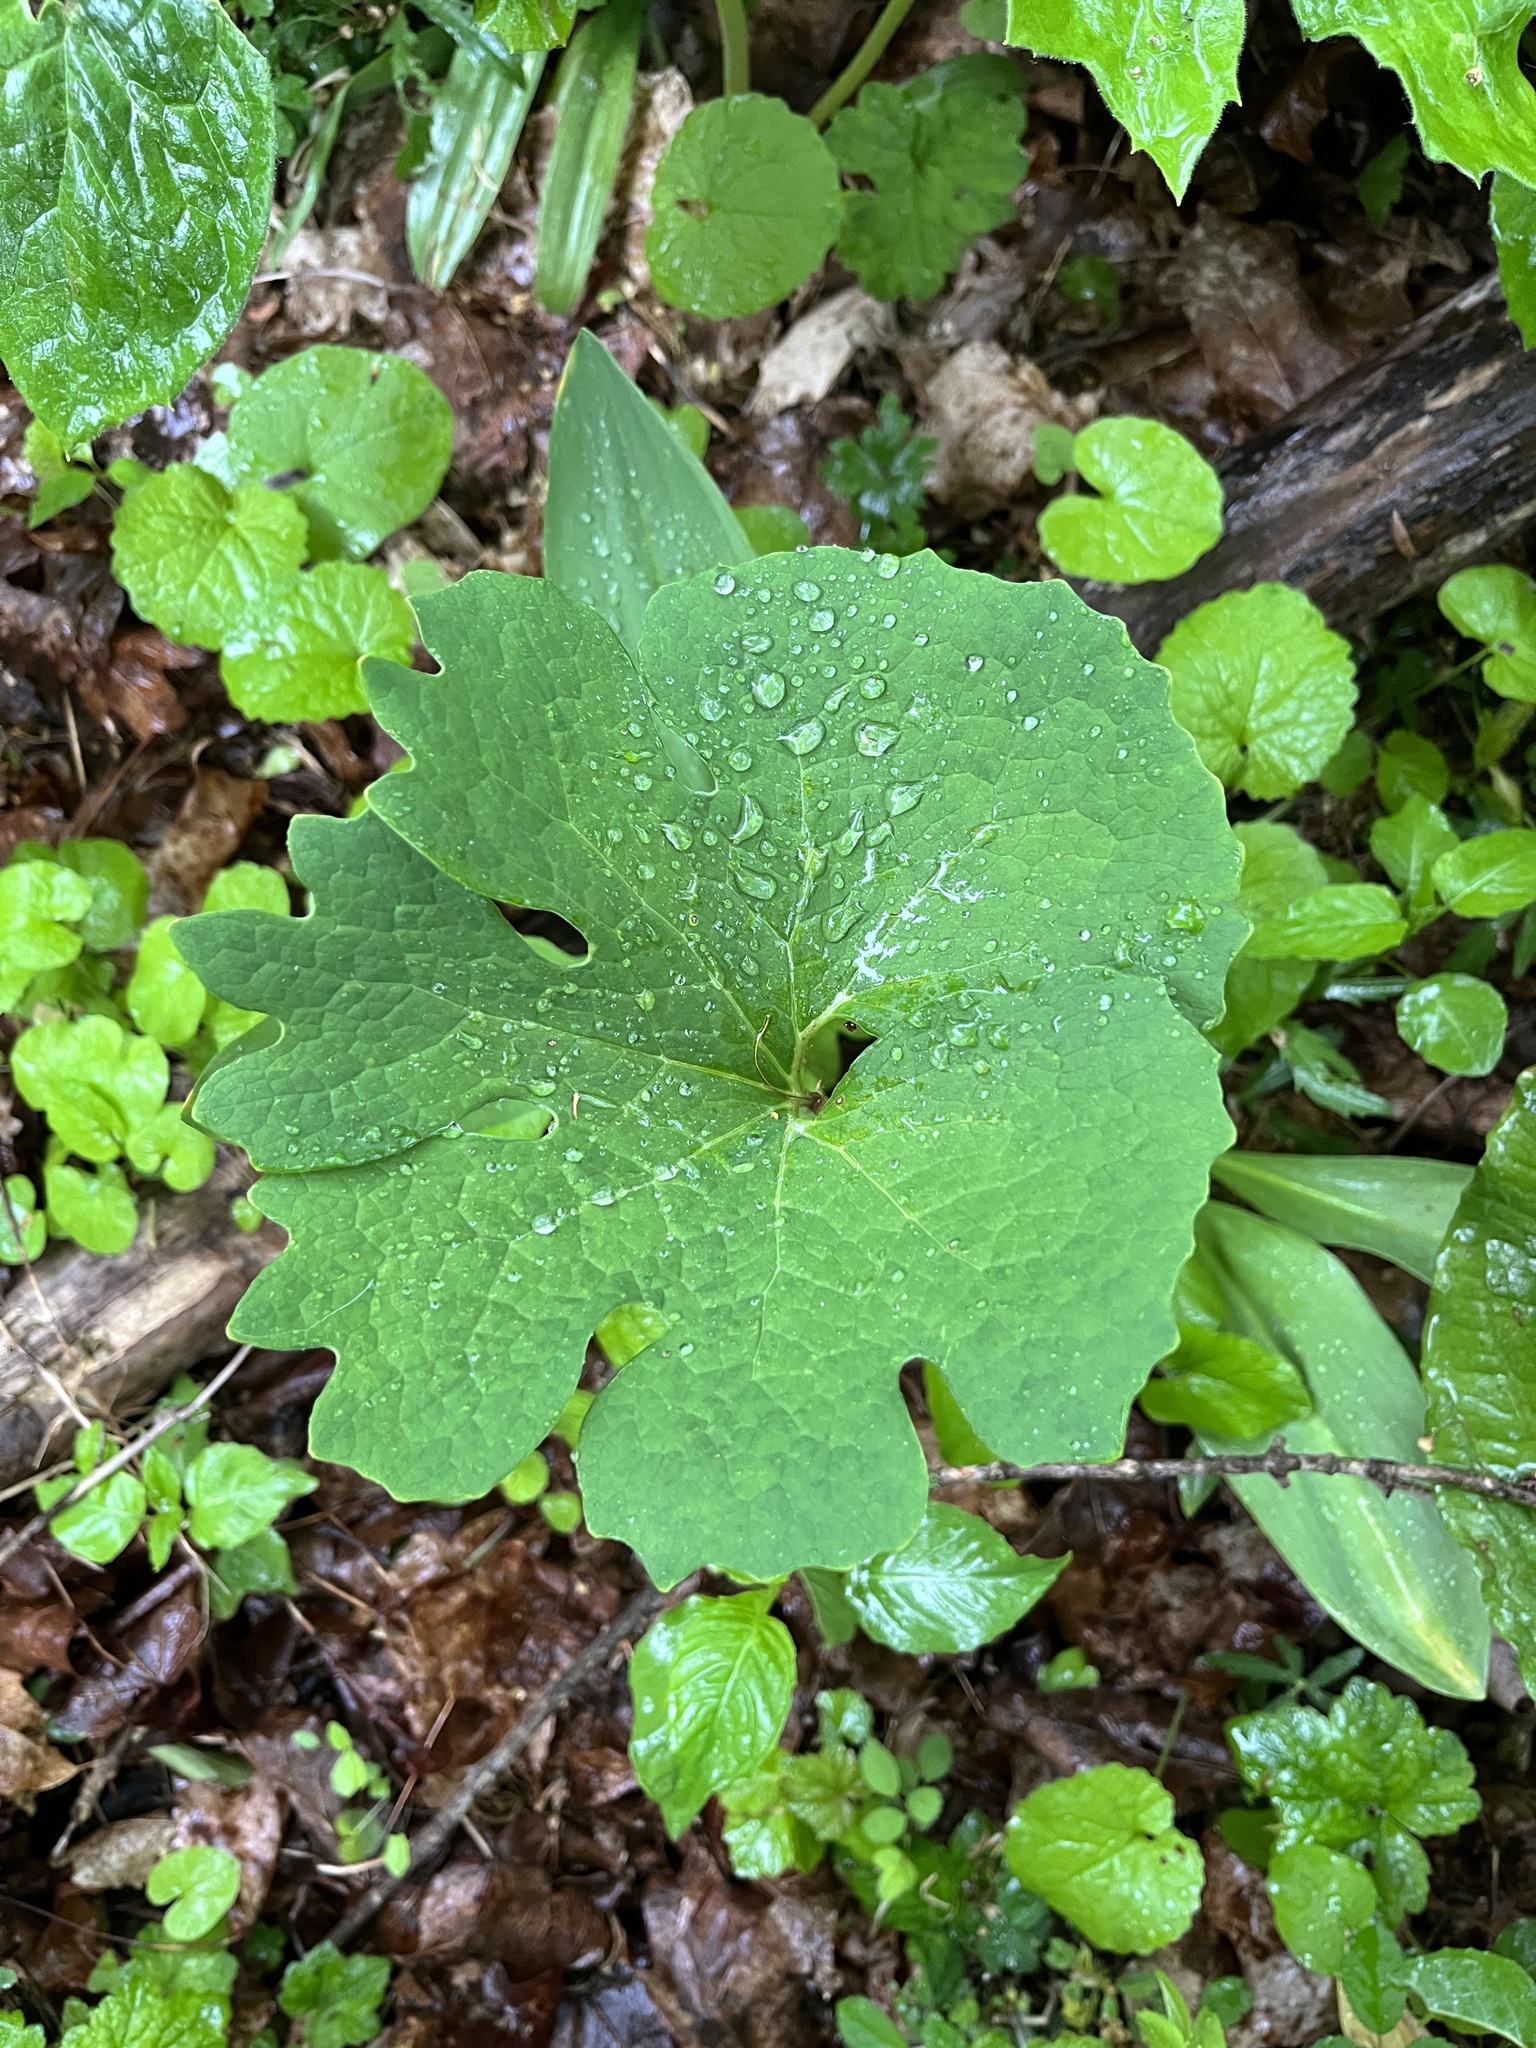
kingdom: Plantae
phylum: Tracheophyta
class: Magnoliopsida
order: Ranunculales
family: Papaveraceae
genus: Sanguinaria
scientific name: Sanguinaria canadensis
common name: Bloodroot
